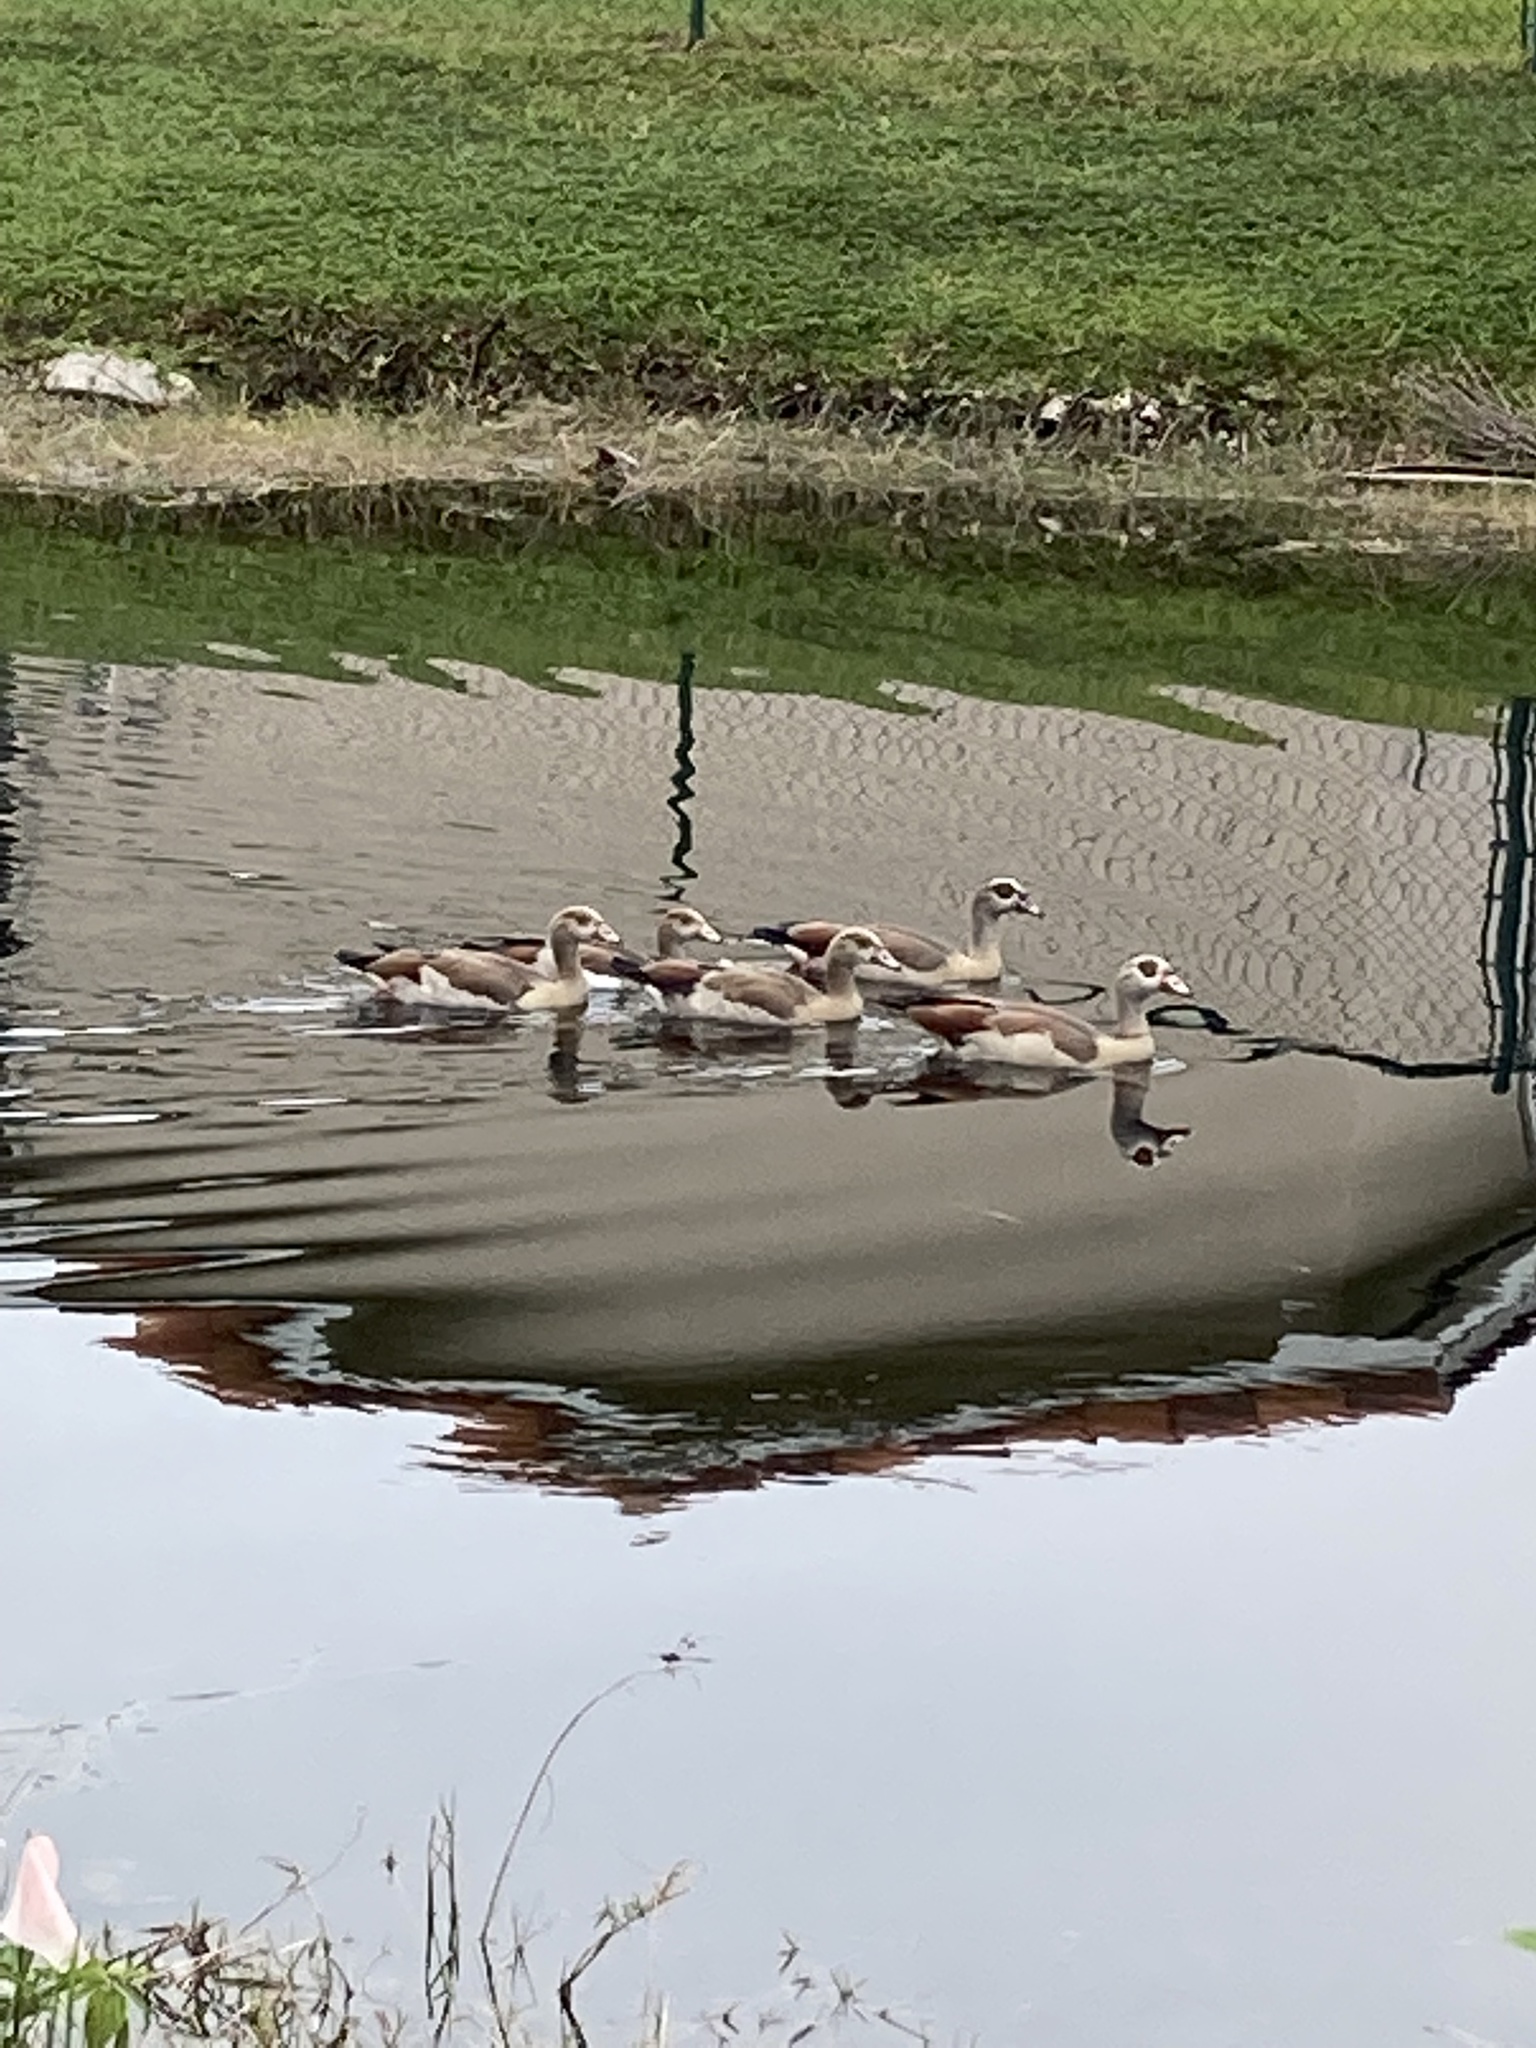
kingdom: Animalia
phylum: Chordata
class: Aves
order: Anseriformes
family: Anatidae
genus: Alopochen
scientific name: Alopochen aegyptiaca
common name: Egyptian goose
